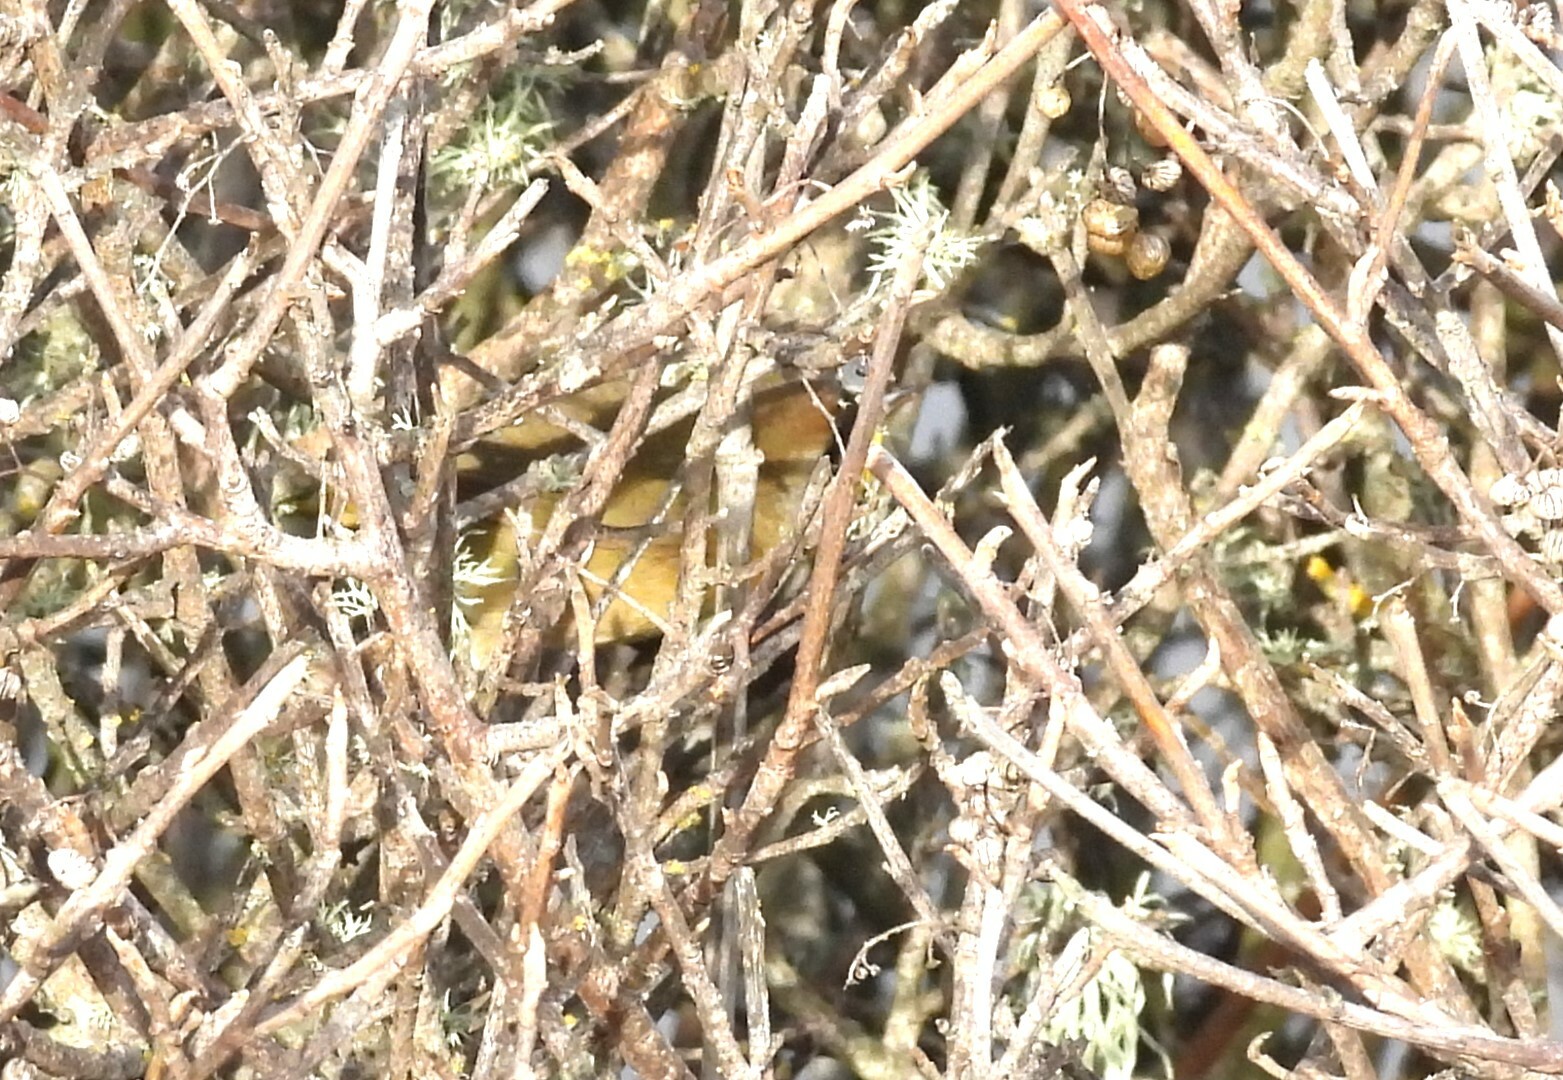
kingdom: Animalia
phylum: Chordata
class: Aves
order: Passeriformes
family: Parulidae
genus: Geothlypis
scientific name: Geothlypis trichas
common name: Common yellowthroat
